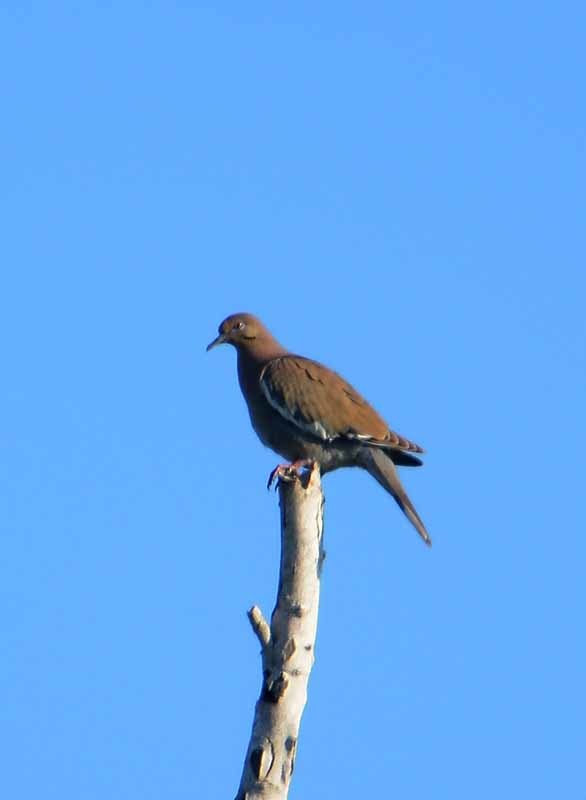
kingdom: Animalia
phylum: Chordata
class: Aves
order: Columbiformes
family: Columbidae
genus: Zenaida
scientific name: Zenaida asiatica
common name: White-winged dove
